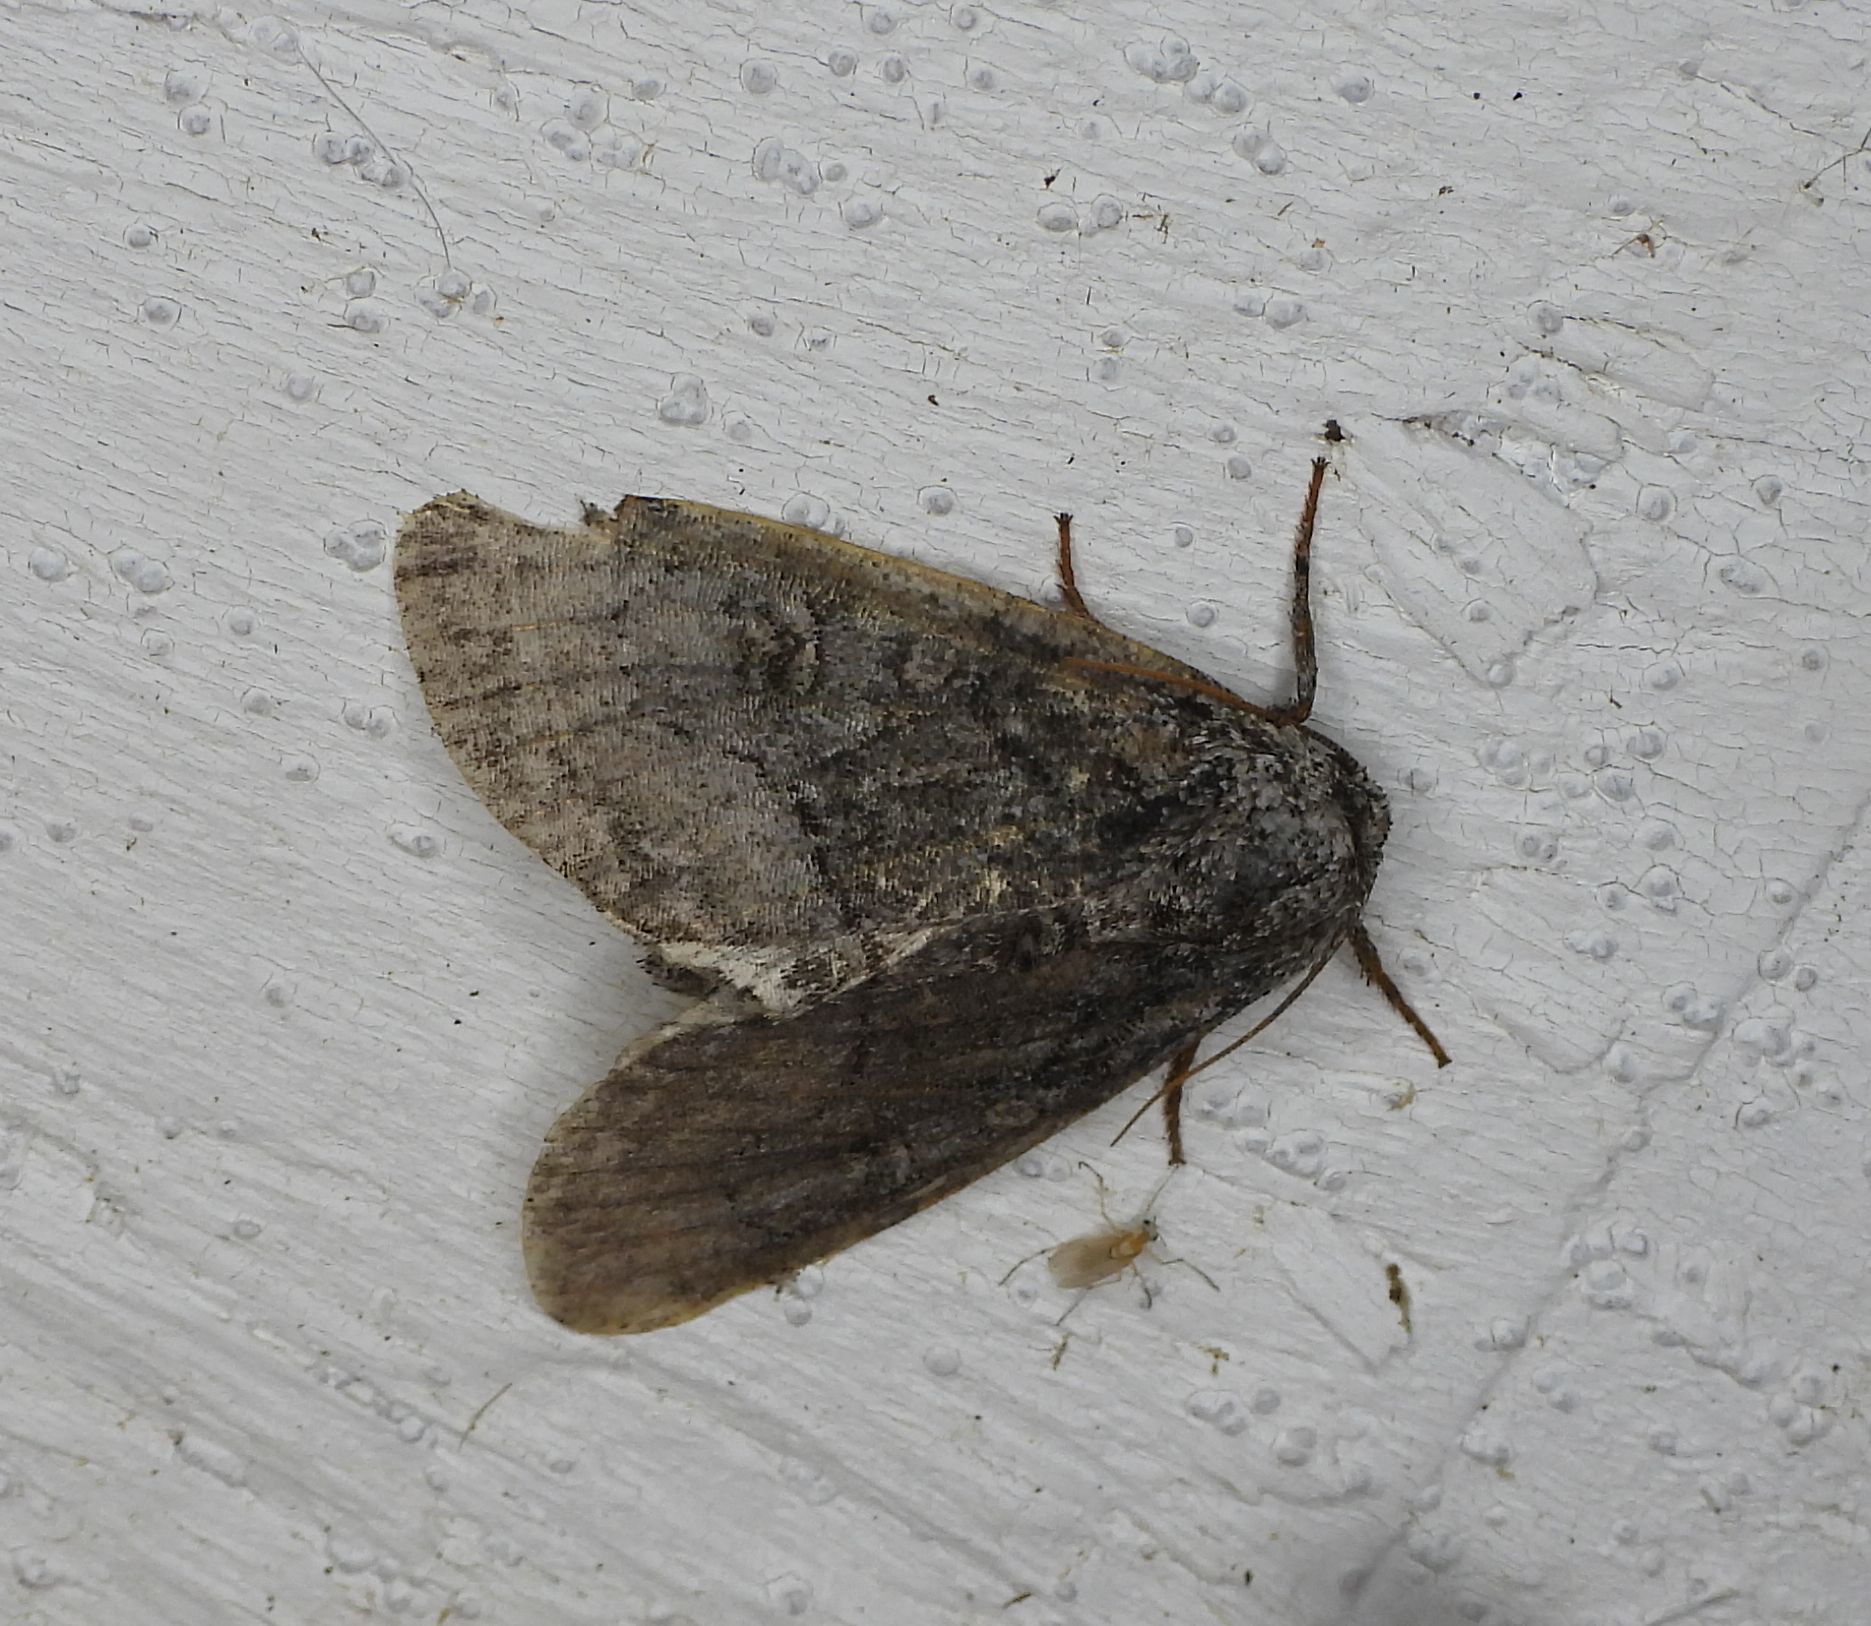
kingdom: Animalia
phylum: Arthropoda
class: Insecta
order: Lepidoptera
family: Noctuidae
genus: Raphia
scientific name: Raphia frater
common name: Brother
